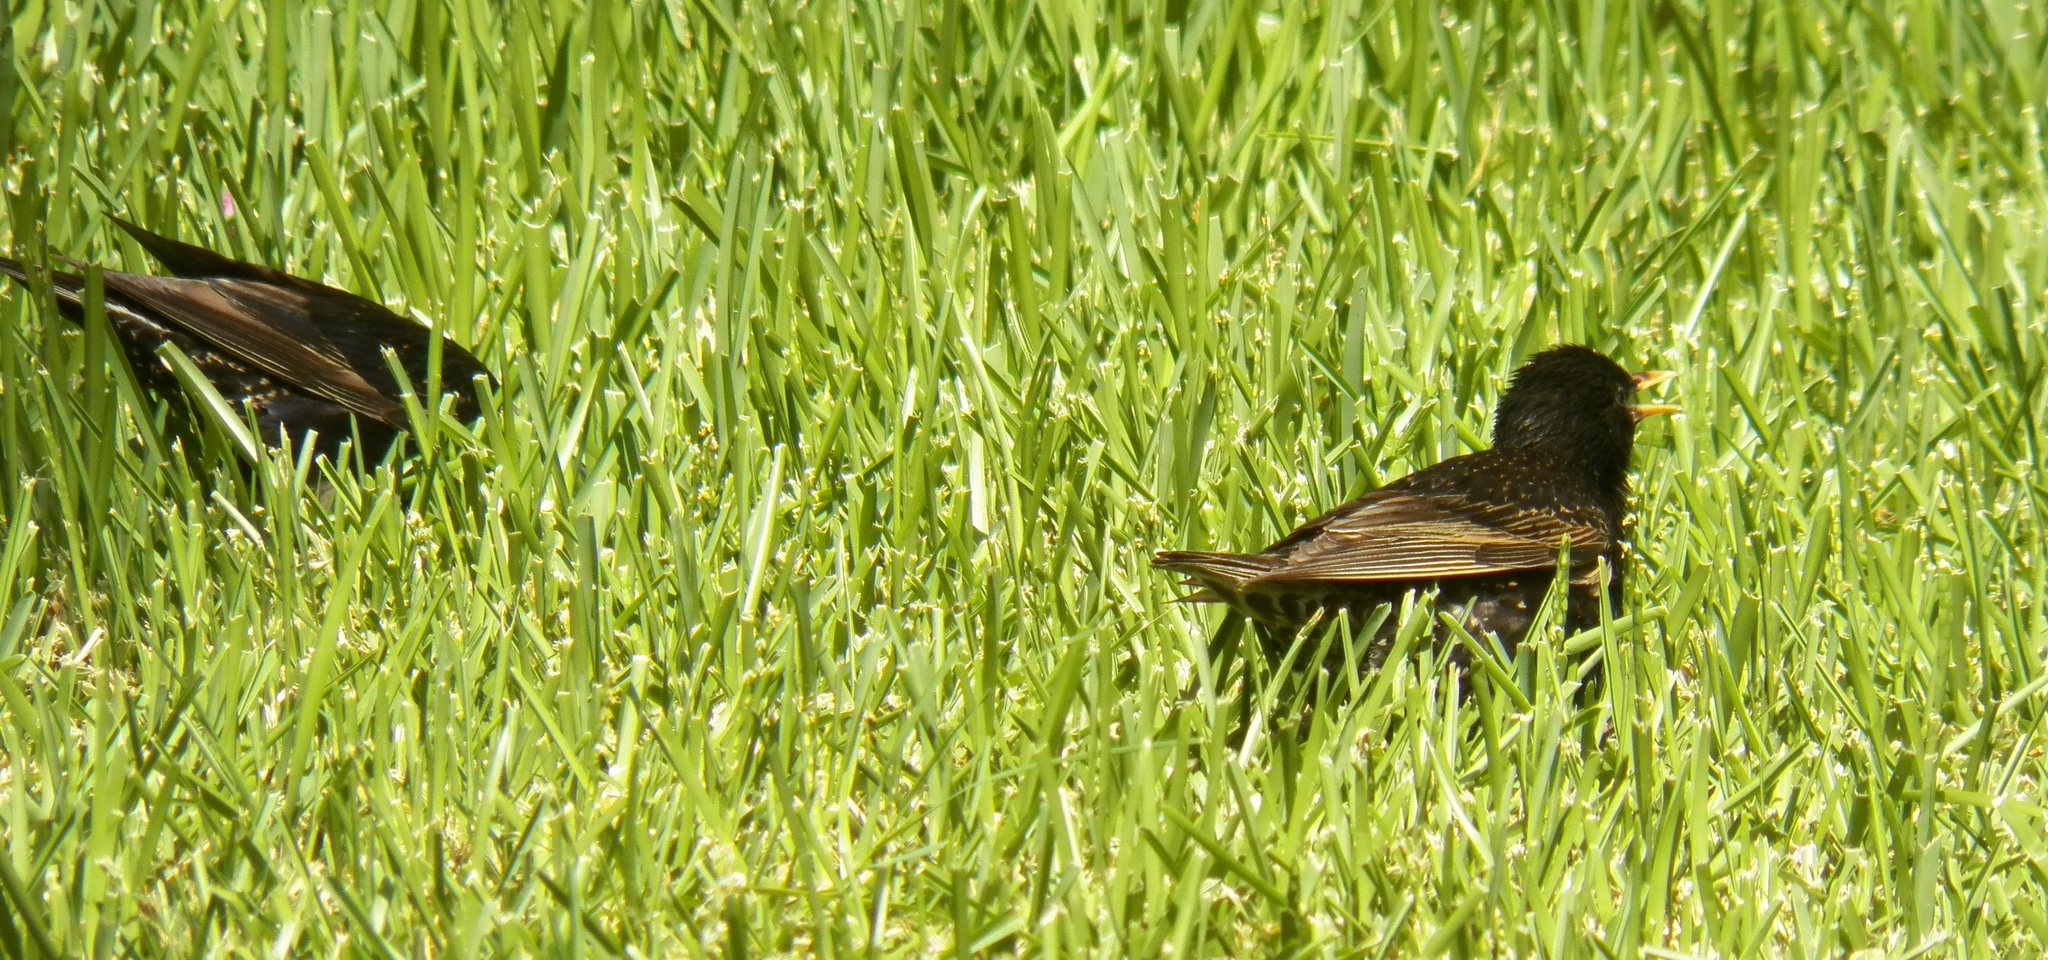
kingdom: Animalia
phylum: Chordata
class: Aves
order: Passeriformes
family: Sturnidae
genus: Sturnus
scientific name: Sturnus vulgaris
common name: Common starling
